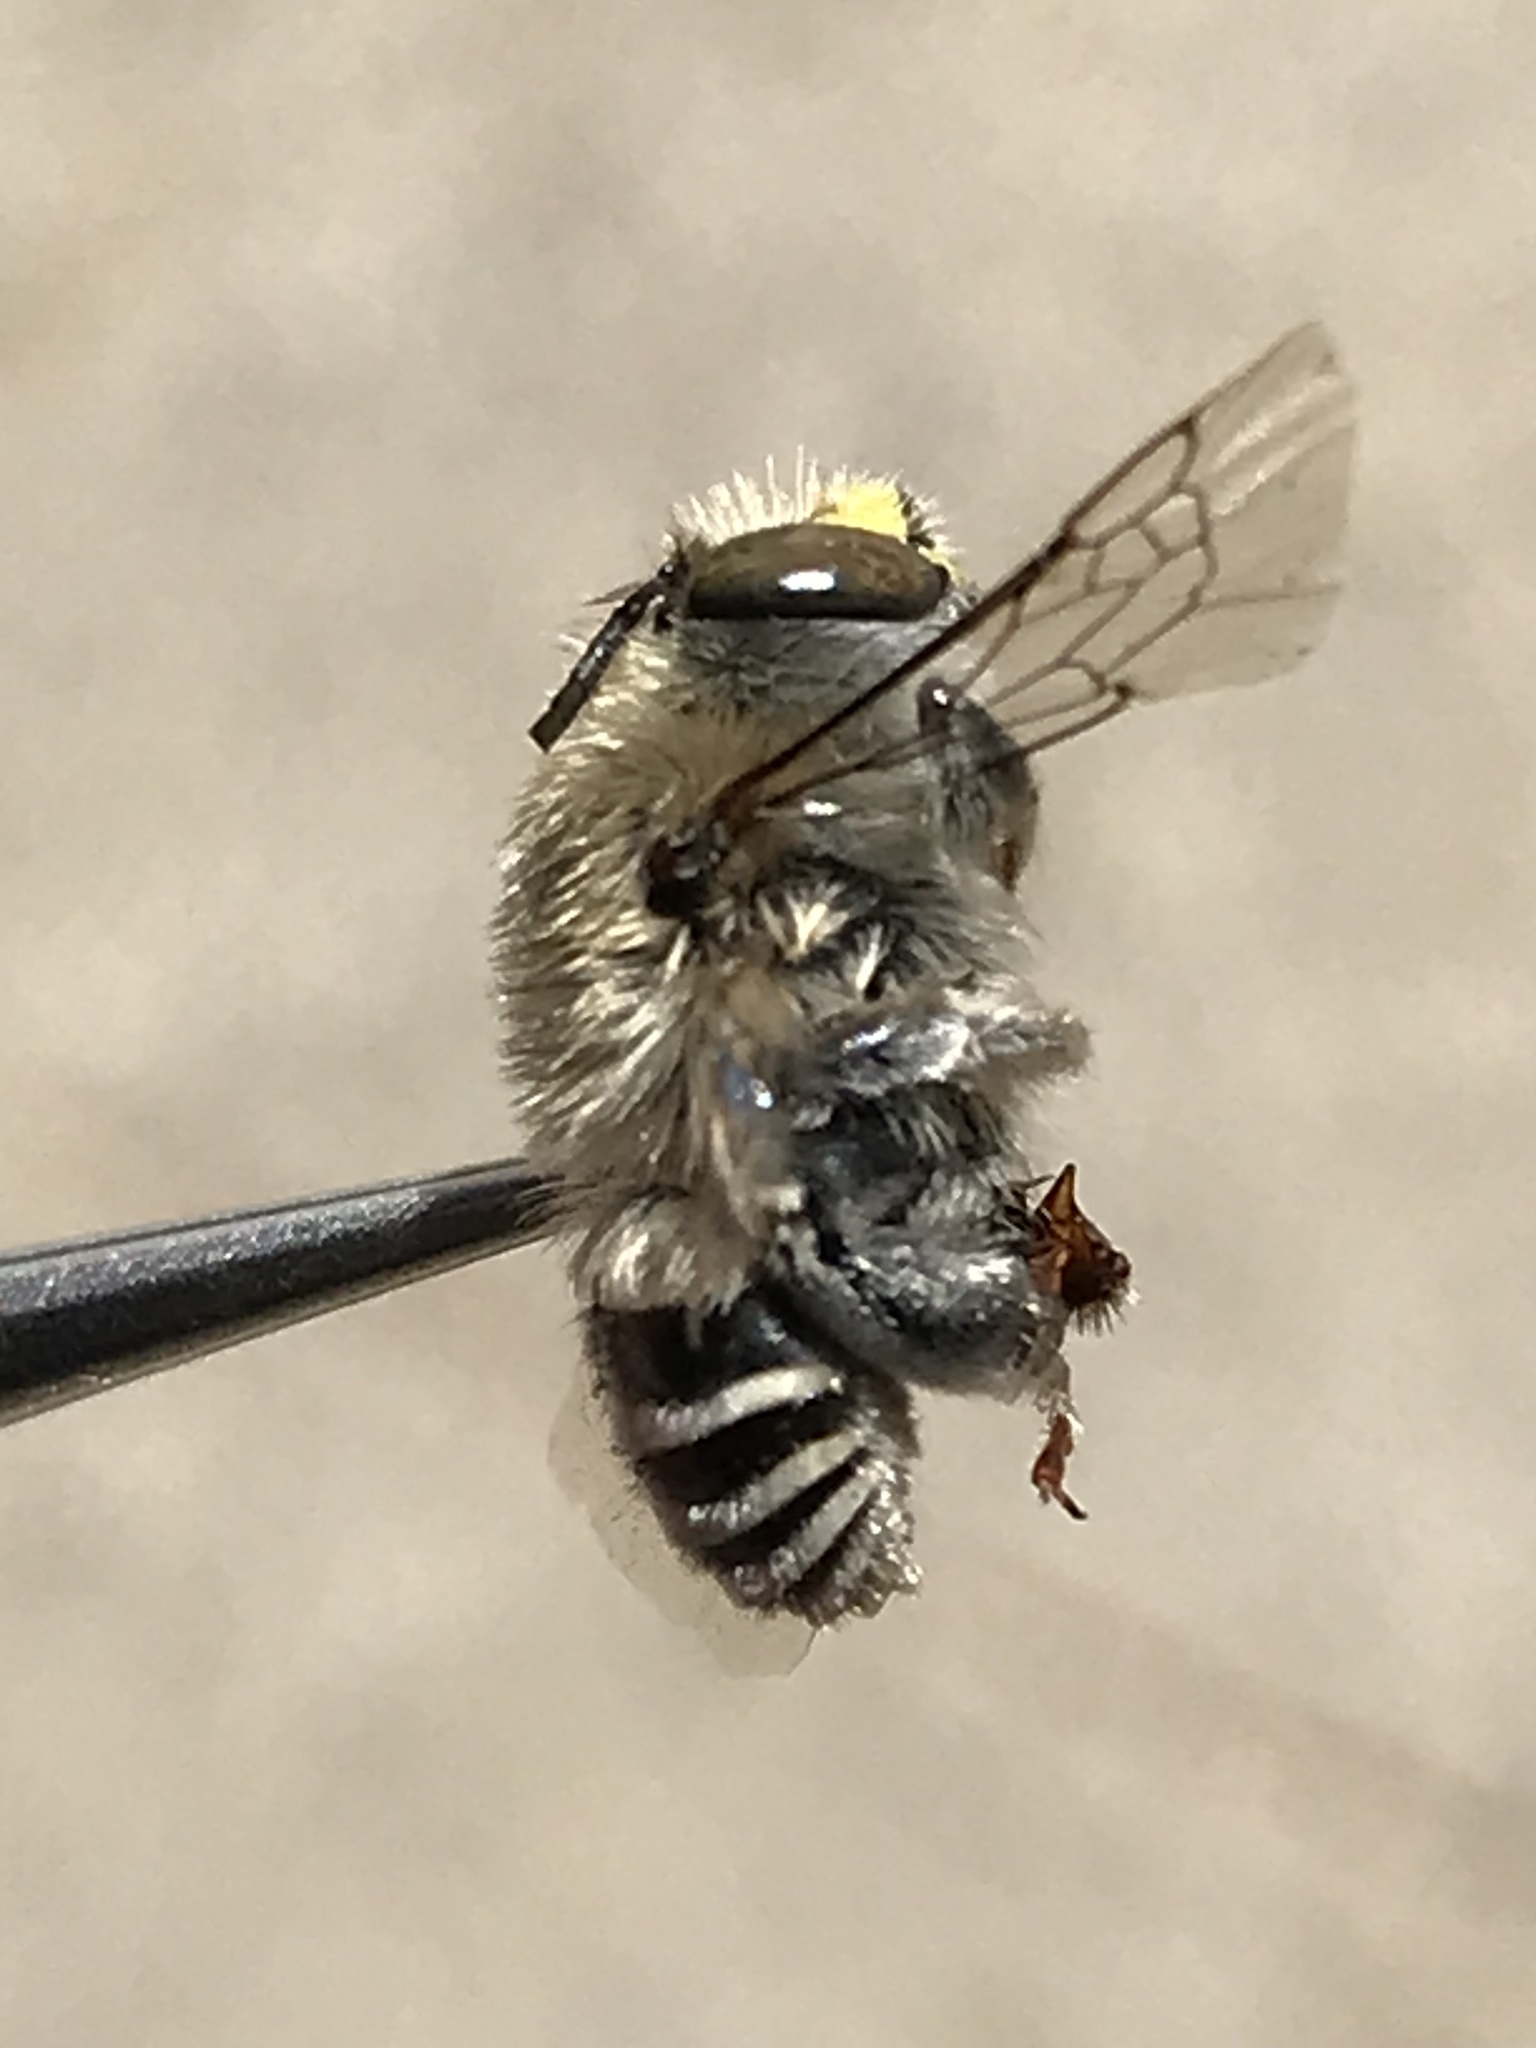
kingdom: Animalia
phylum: Arthropoda
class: Insecta
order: Hymenoptera
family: Apidae
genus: Anthophora
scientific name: Anthophora californica
